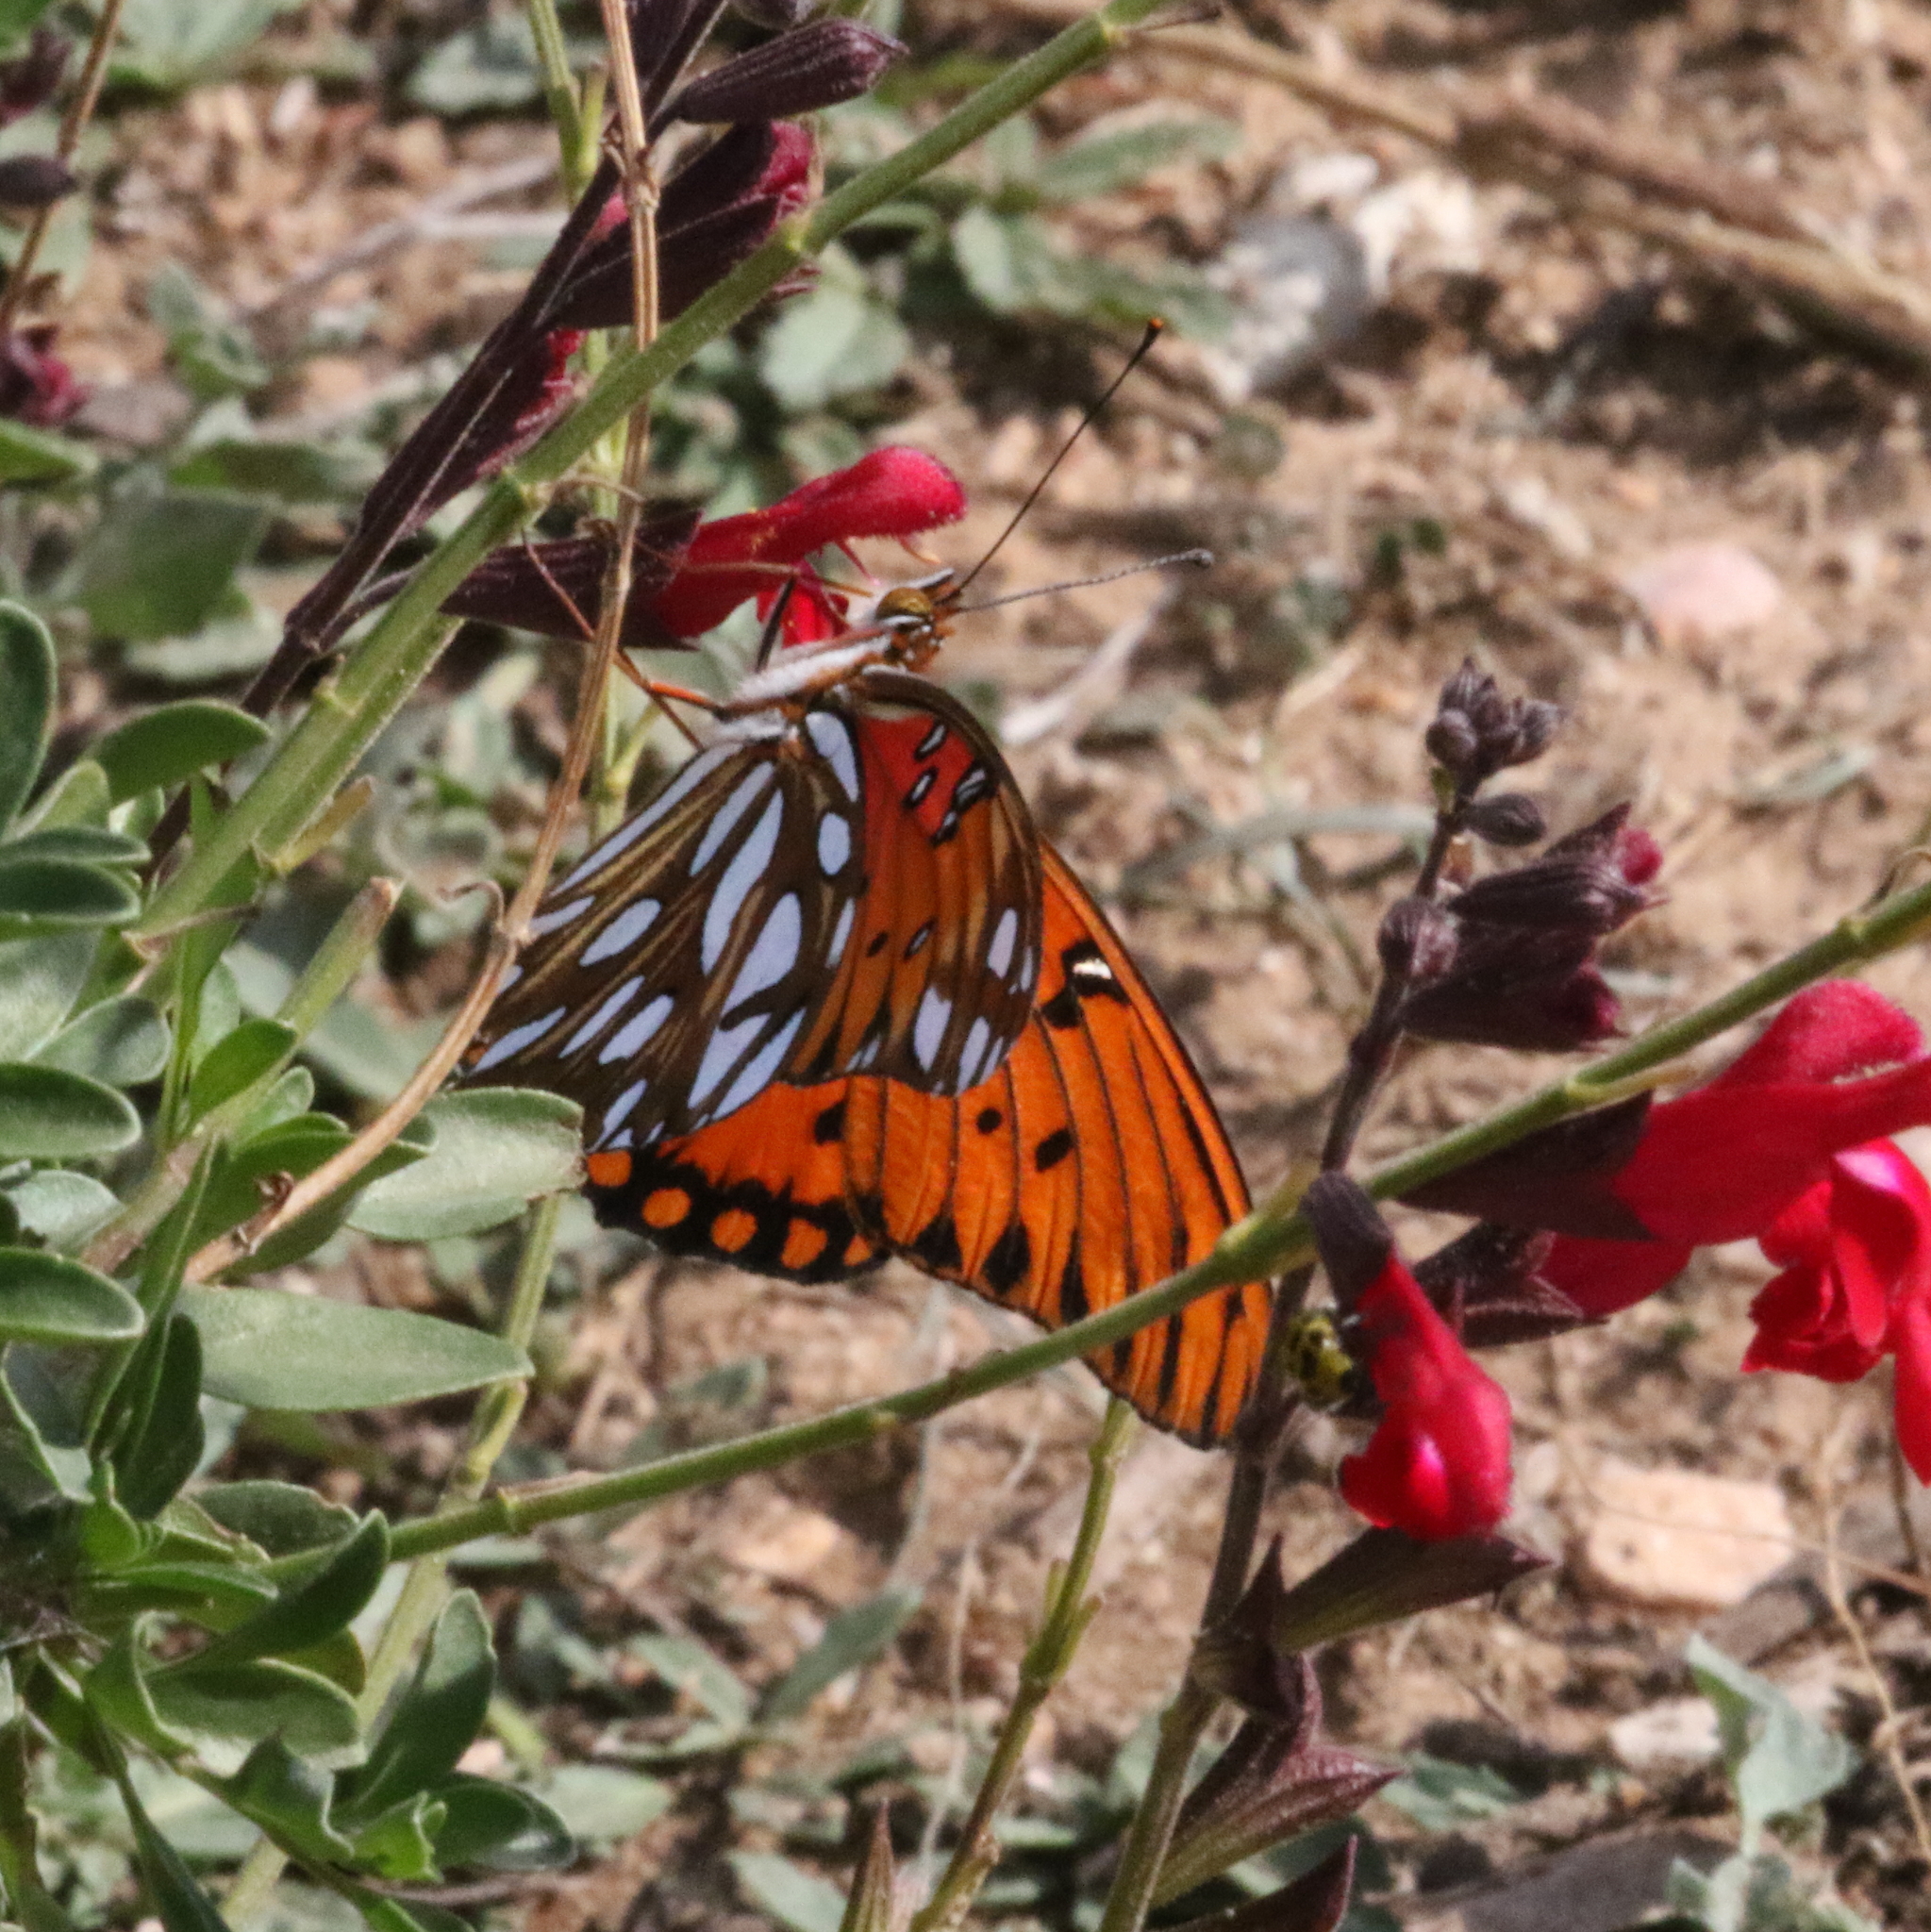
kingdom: Animalia
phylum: Arthropoda
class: Insecta
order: Lepidoptera
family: Nymphalidae
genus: Dione
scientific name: Dione vanillae
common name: Gulf fritillary
